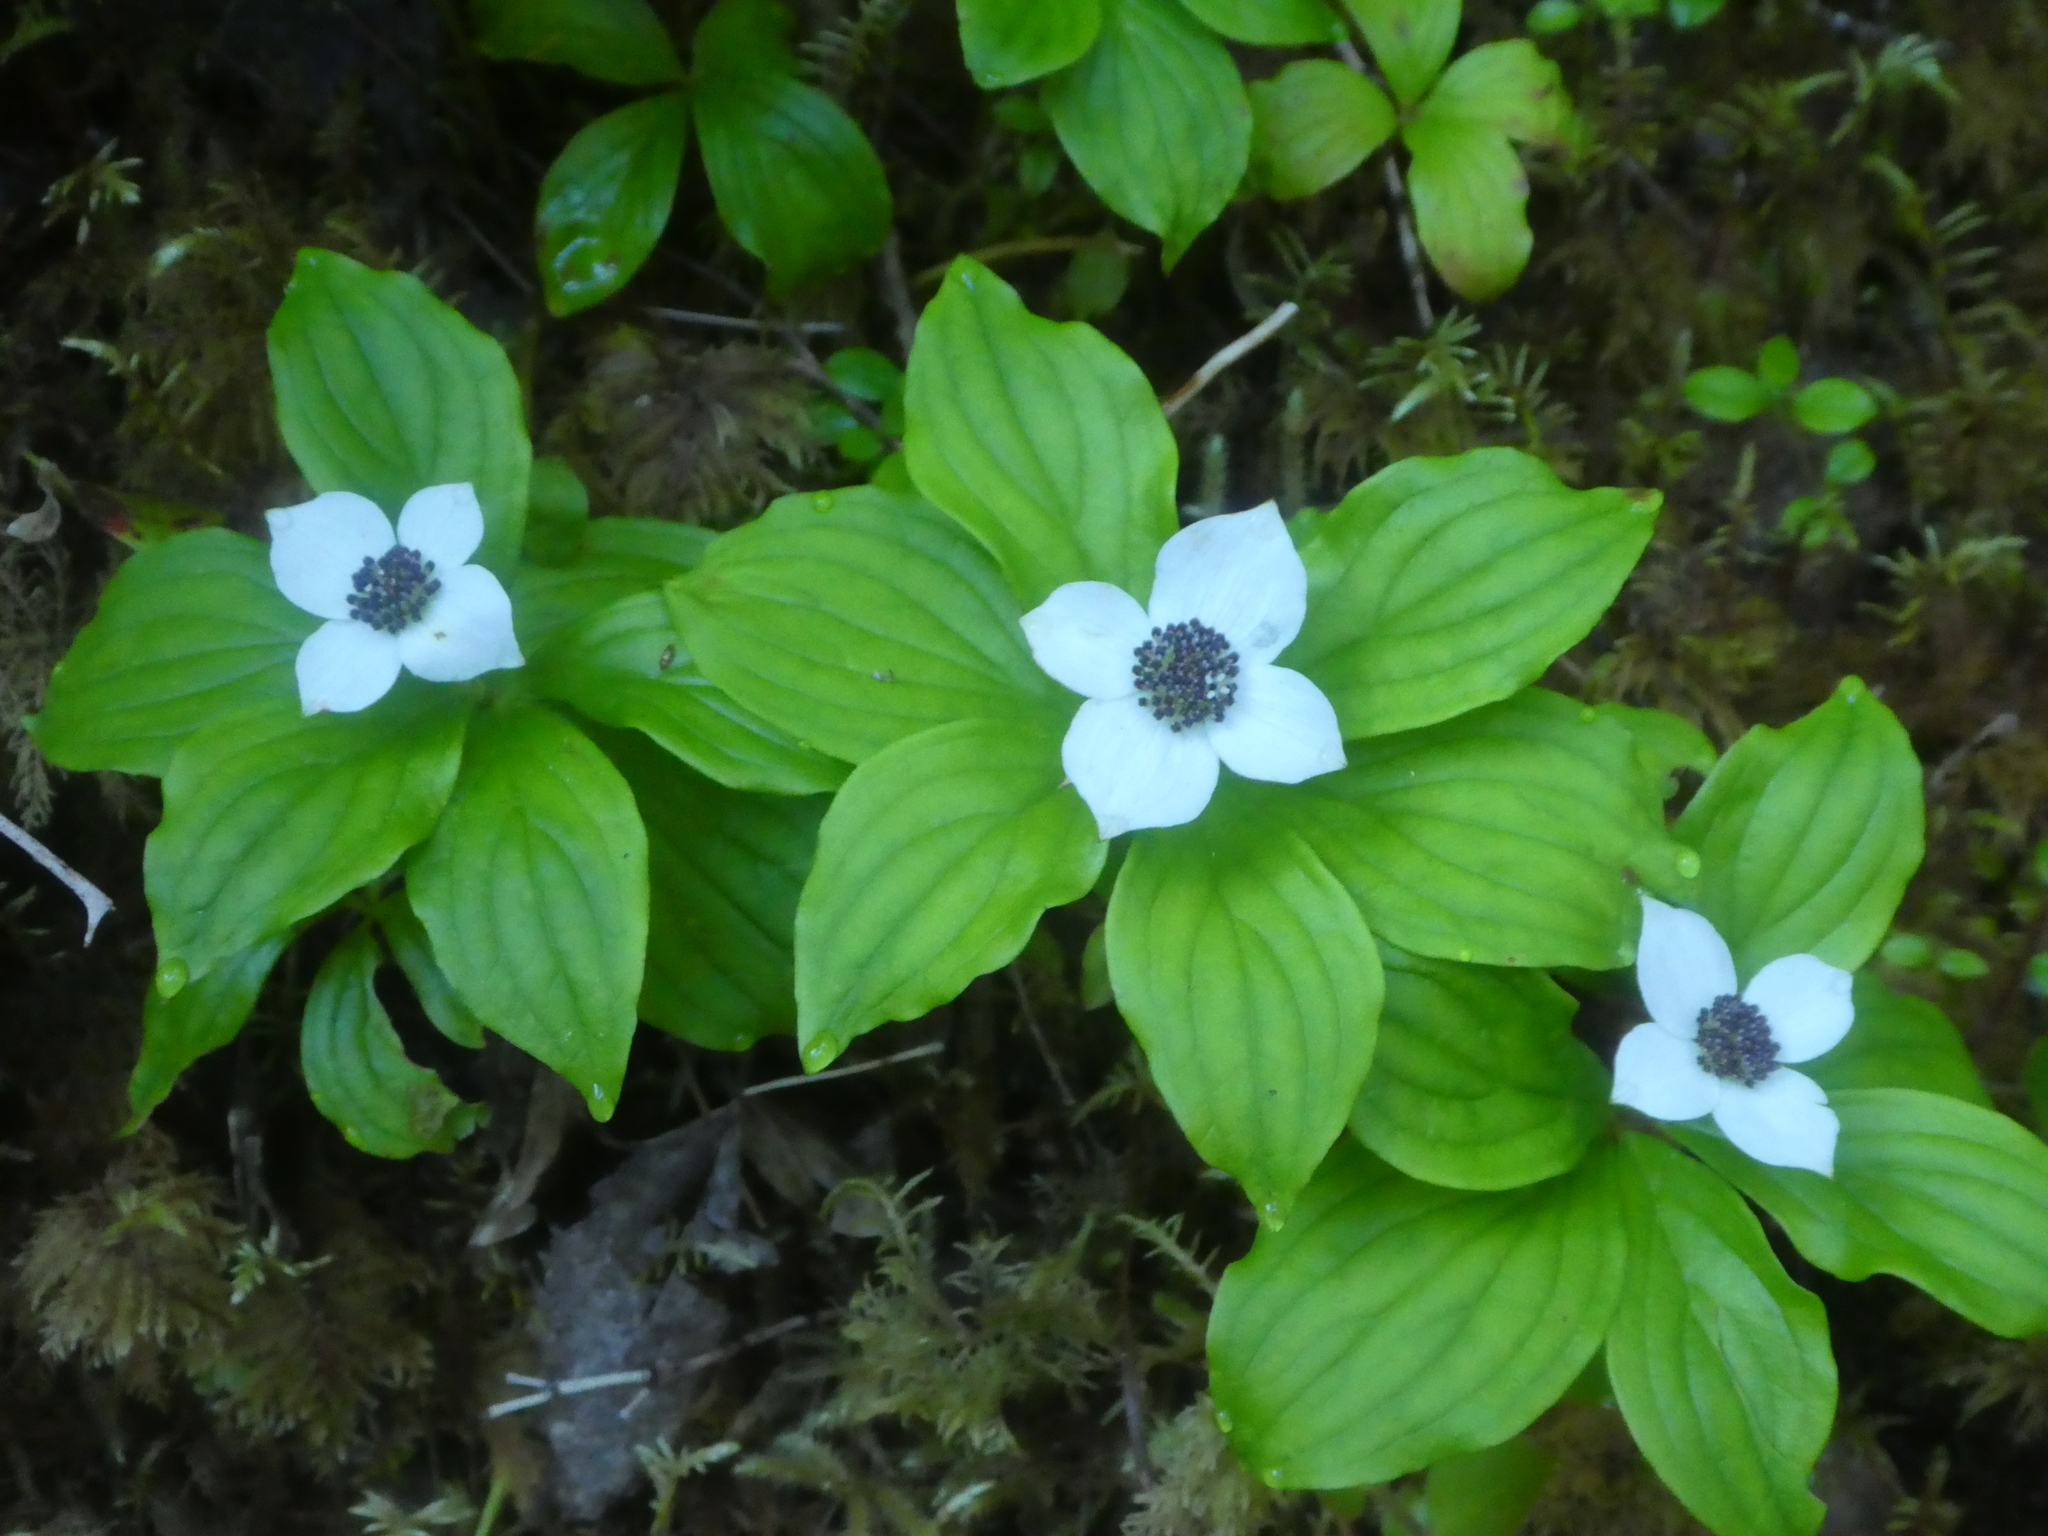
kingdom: Plantae
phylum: Tracheophyta
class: Magnoliopsida
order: Cornales
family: Cornaceae
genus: Cornus
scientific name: Cornus unalaschkensis
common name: Alaska bunchberry
